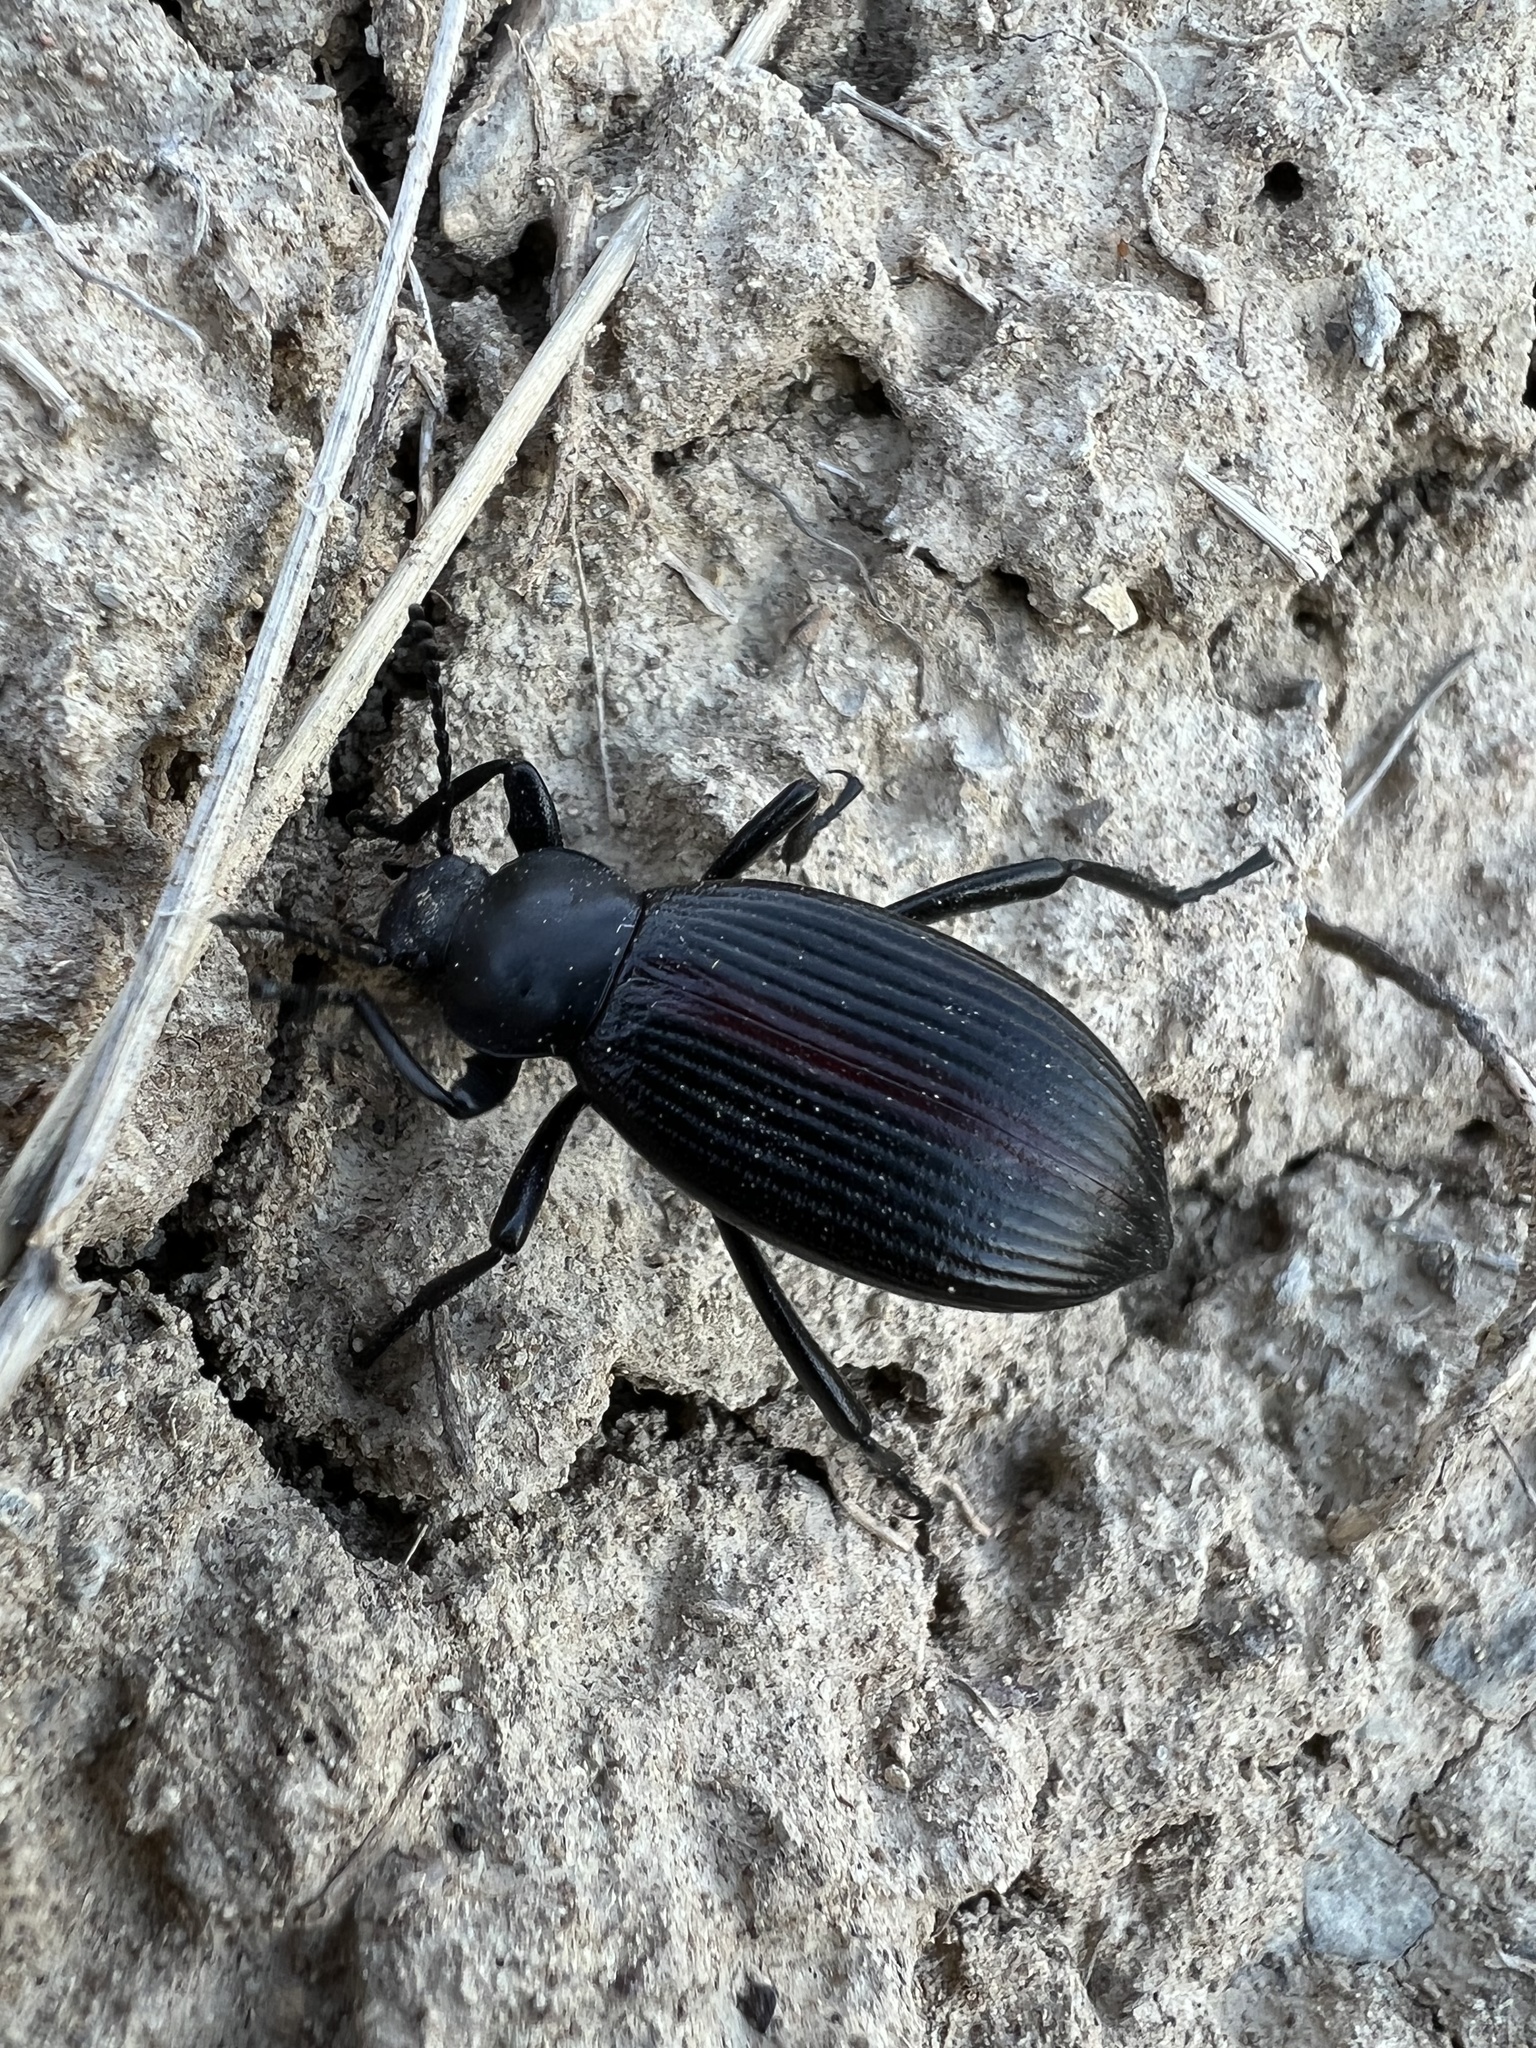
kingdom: Animalia
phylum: Arthropoda
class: Insecta
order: Coleoptera
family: Tenebrionidae
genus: Eleodes
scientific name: Eleodes hispilabris
